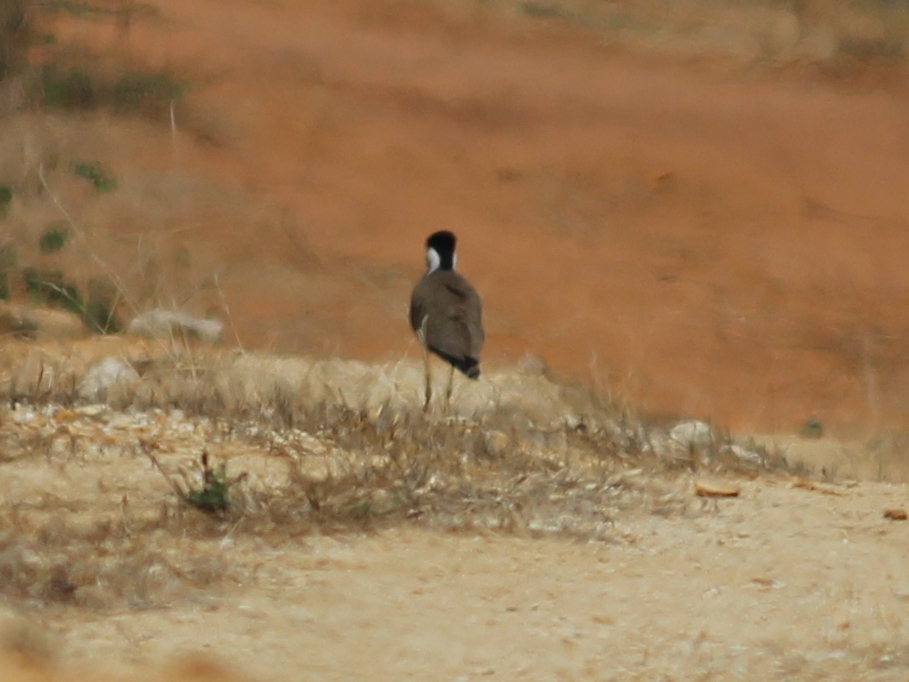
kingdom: Animalia
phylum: Chordata
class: Aves
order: Charadriiformes
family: Charadriidae
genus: Vanellus
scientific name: Vanellus indicus
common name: Red-wattled lapwing
